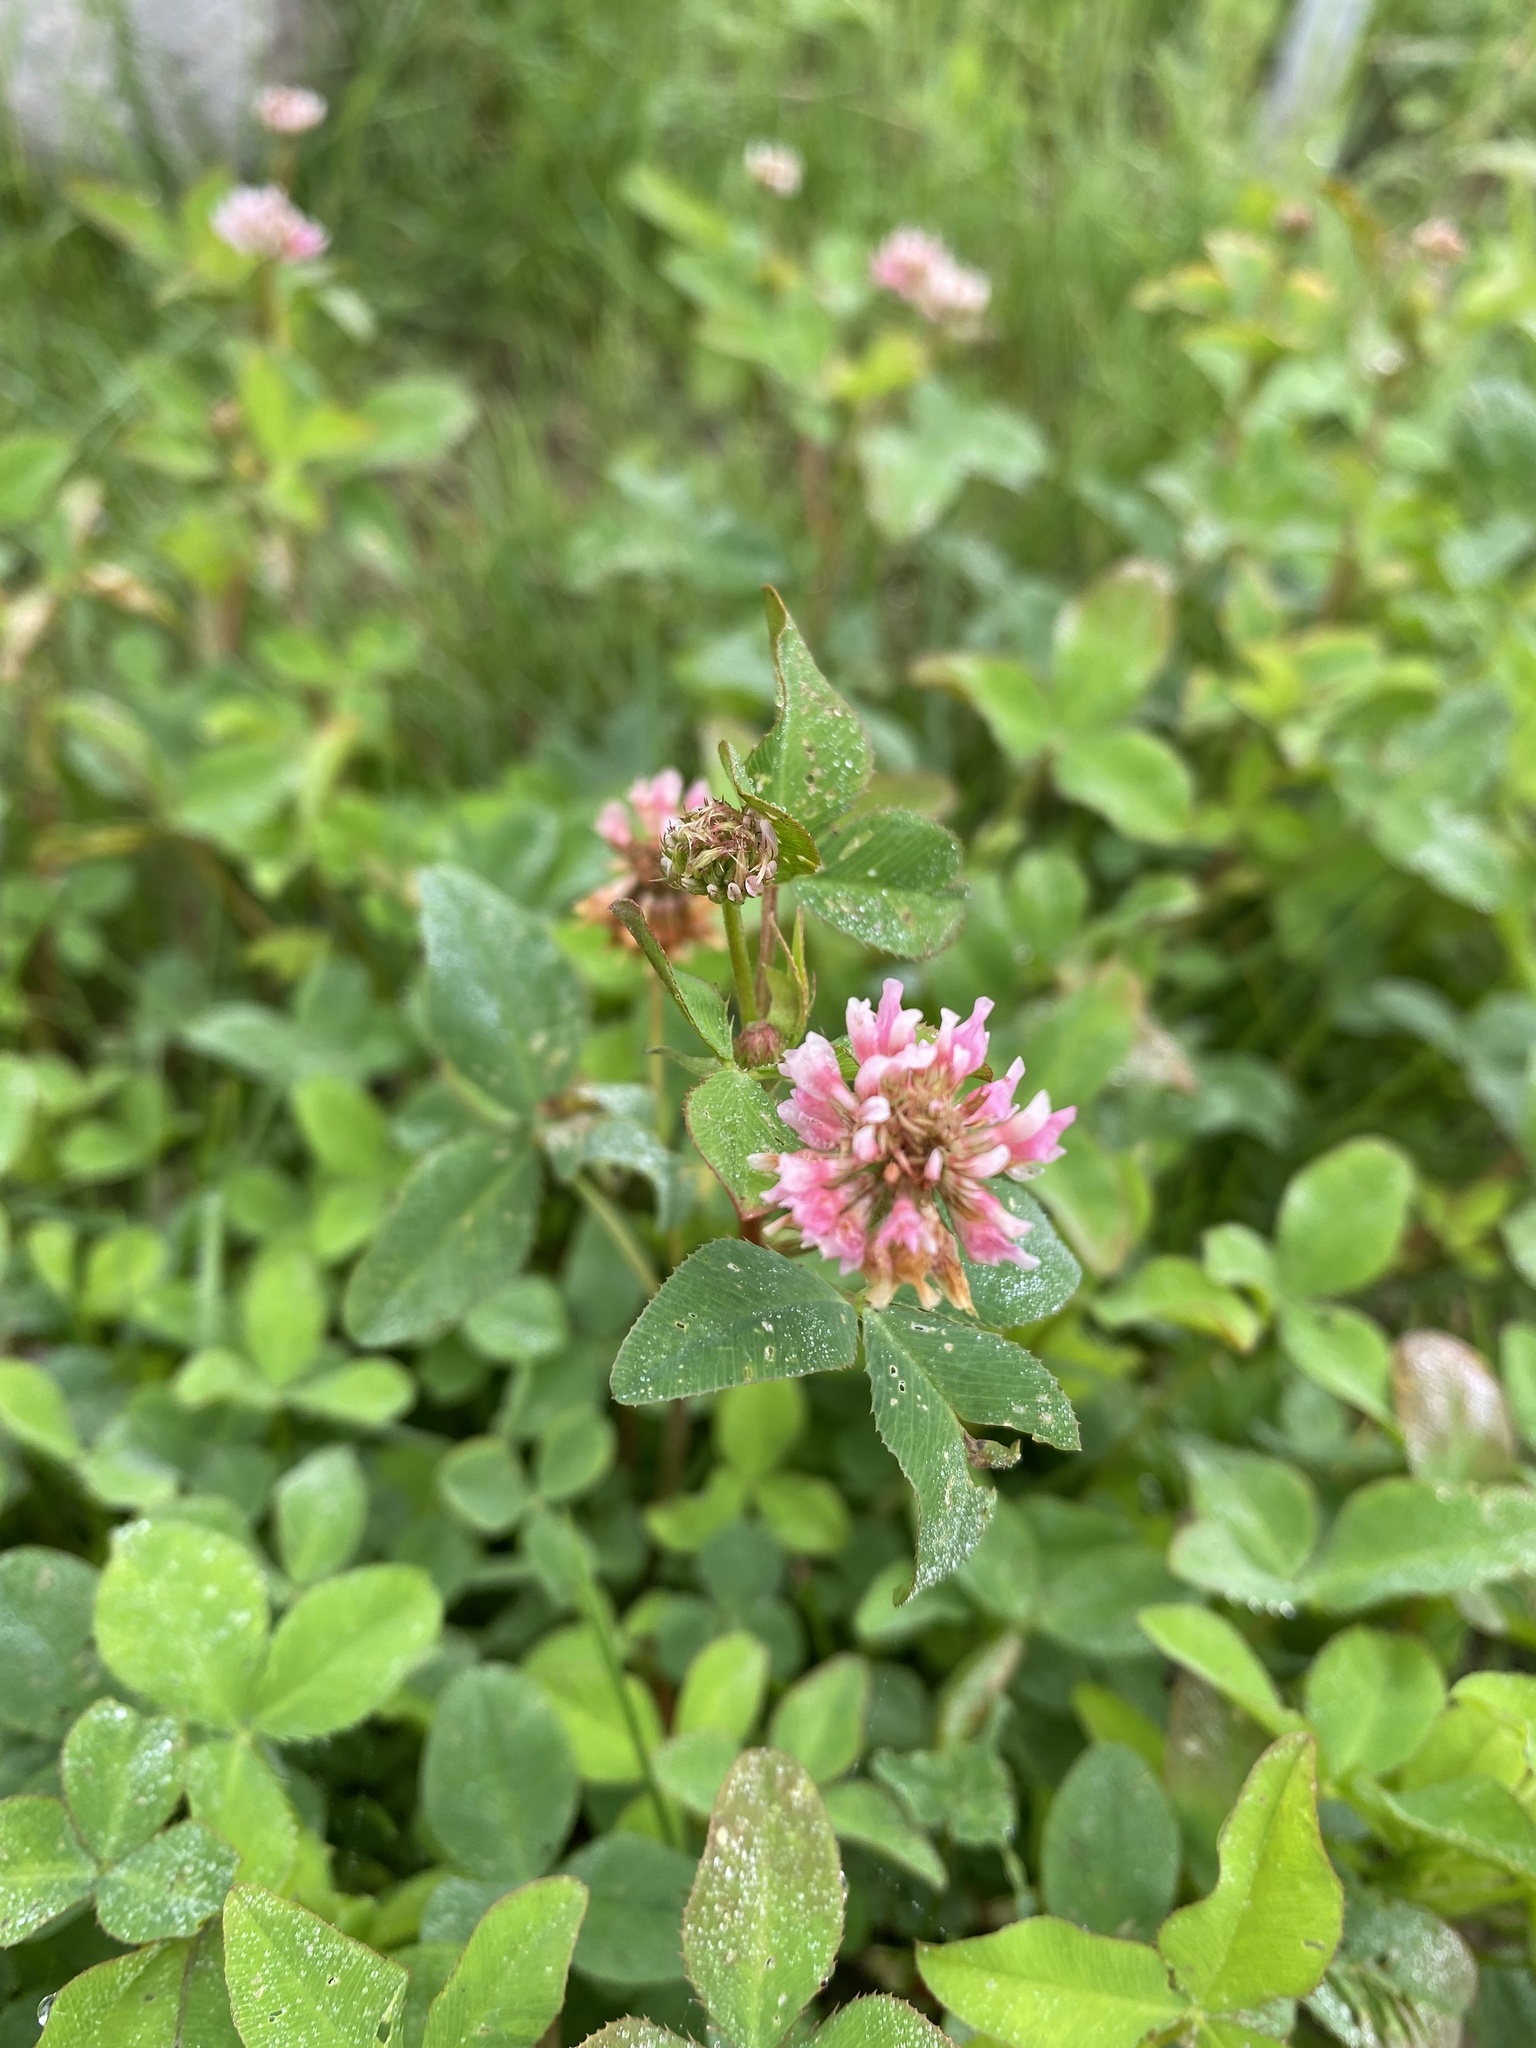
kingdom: Plantae
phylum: Tracheophyta
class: Magnoliopsida
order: Fabales
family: Fabaceae
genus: Trifolium
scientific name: Trifolium hybridum
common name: Alsike clover
